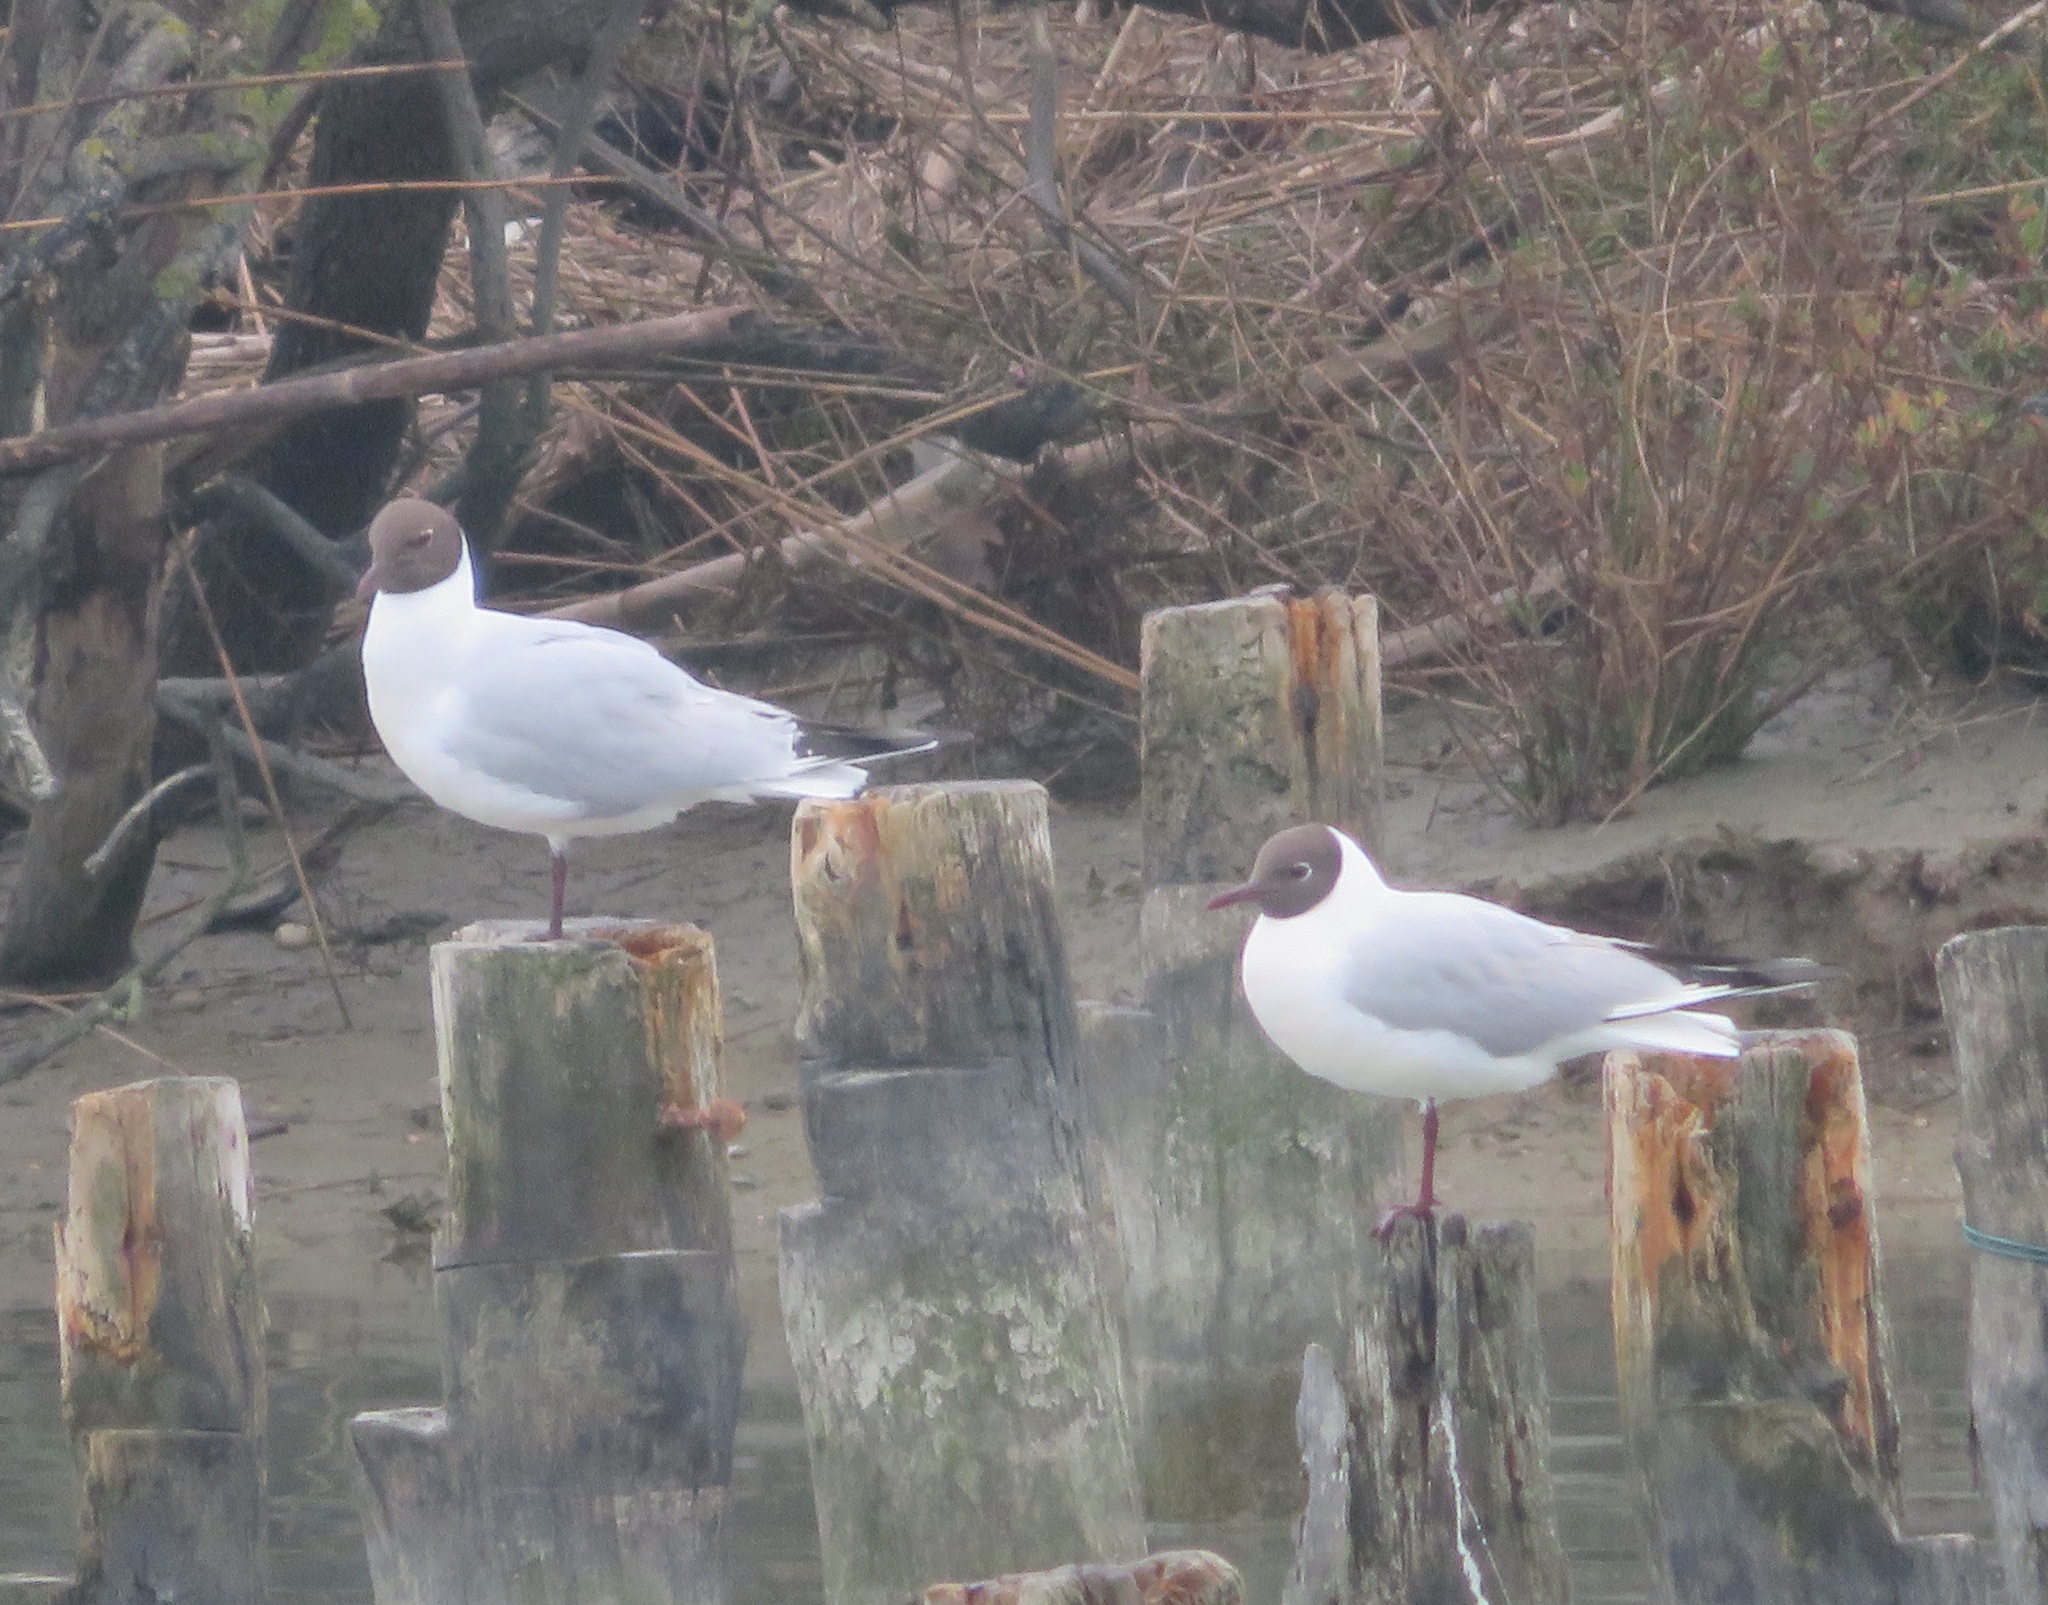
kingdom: Animalia
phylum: Chordata
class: Aves
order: Charadriiformes
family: Laridae
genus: Chroicocephalus
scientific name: Chroicocephalus ridibundus
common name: Black-headed gull
